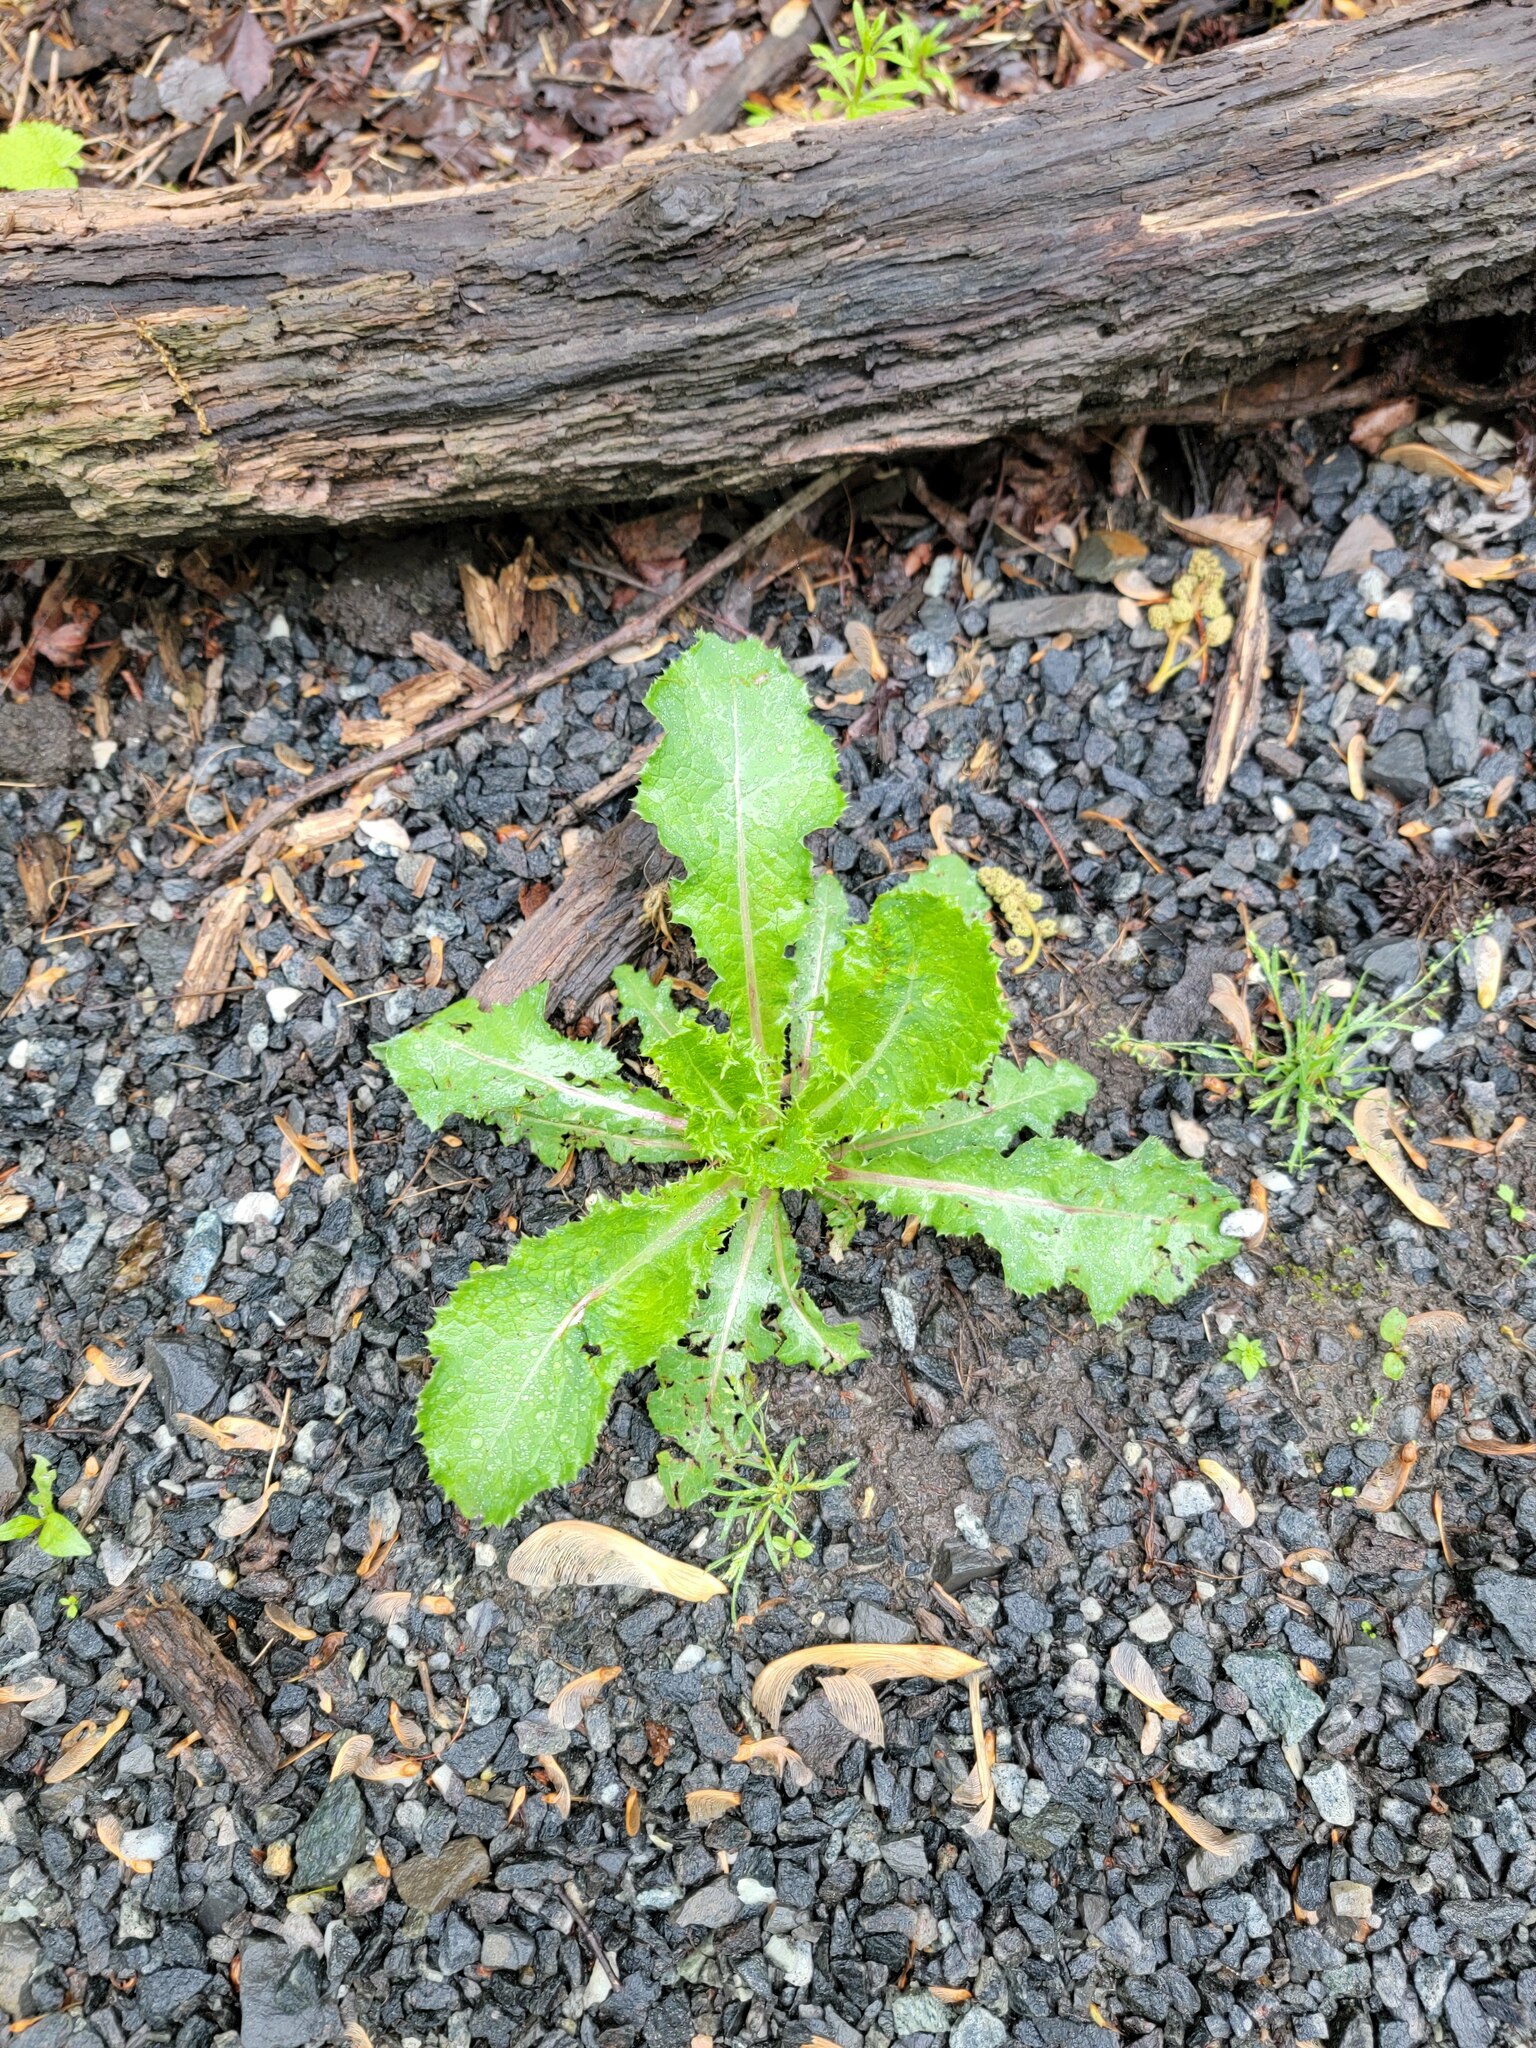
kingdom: Plantae
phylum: Tracheophyta
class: Magnoliopsida
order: Asterales
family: Asteraceae
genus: Sonchus
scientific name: Sonchus asper
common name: Prickly sow-thistle
